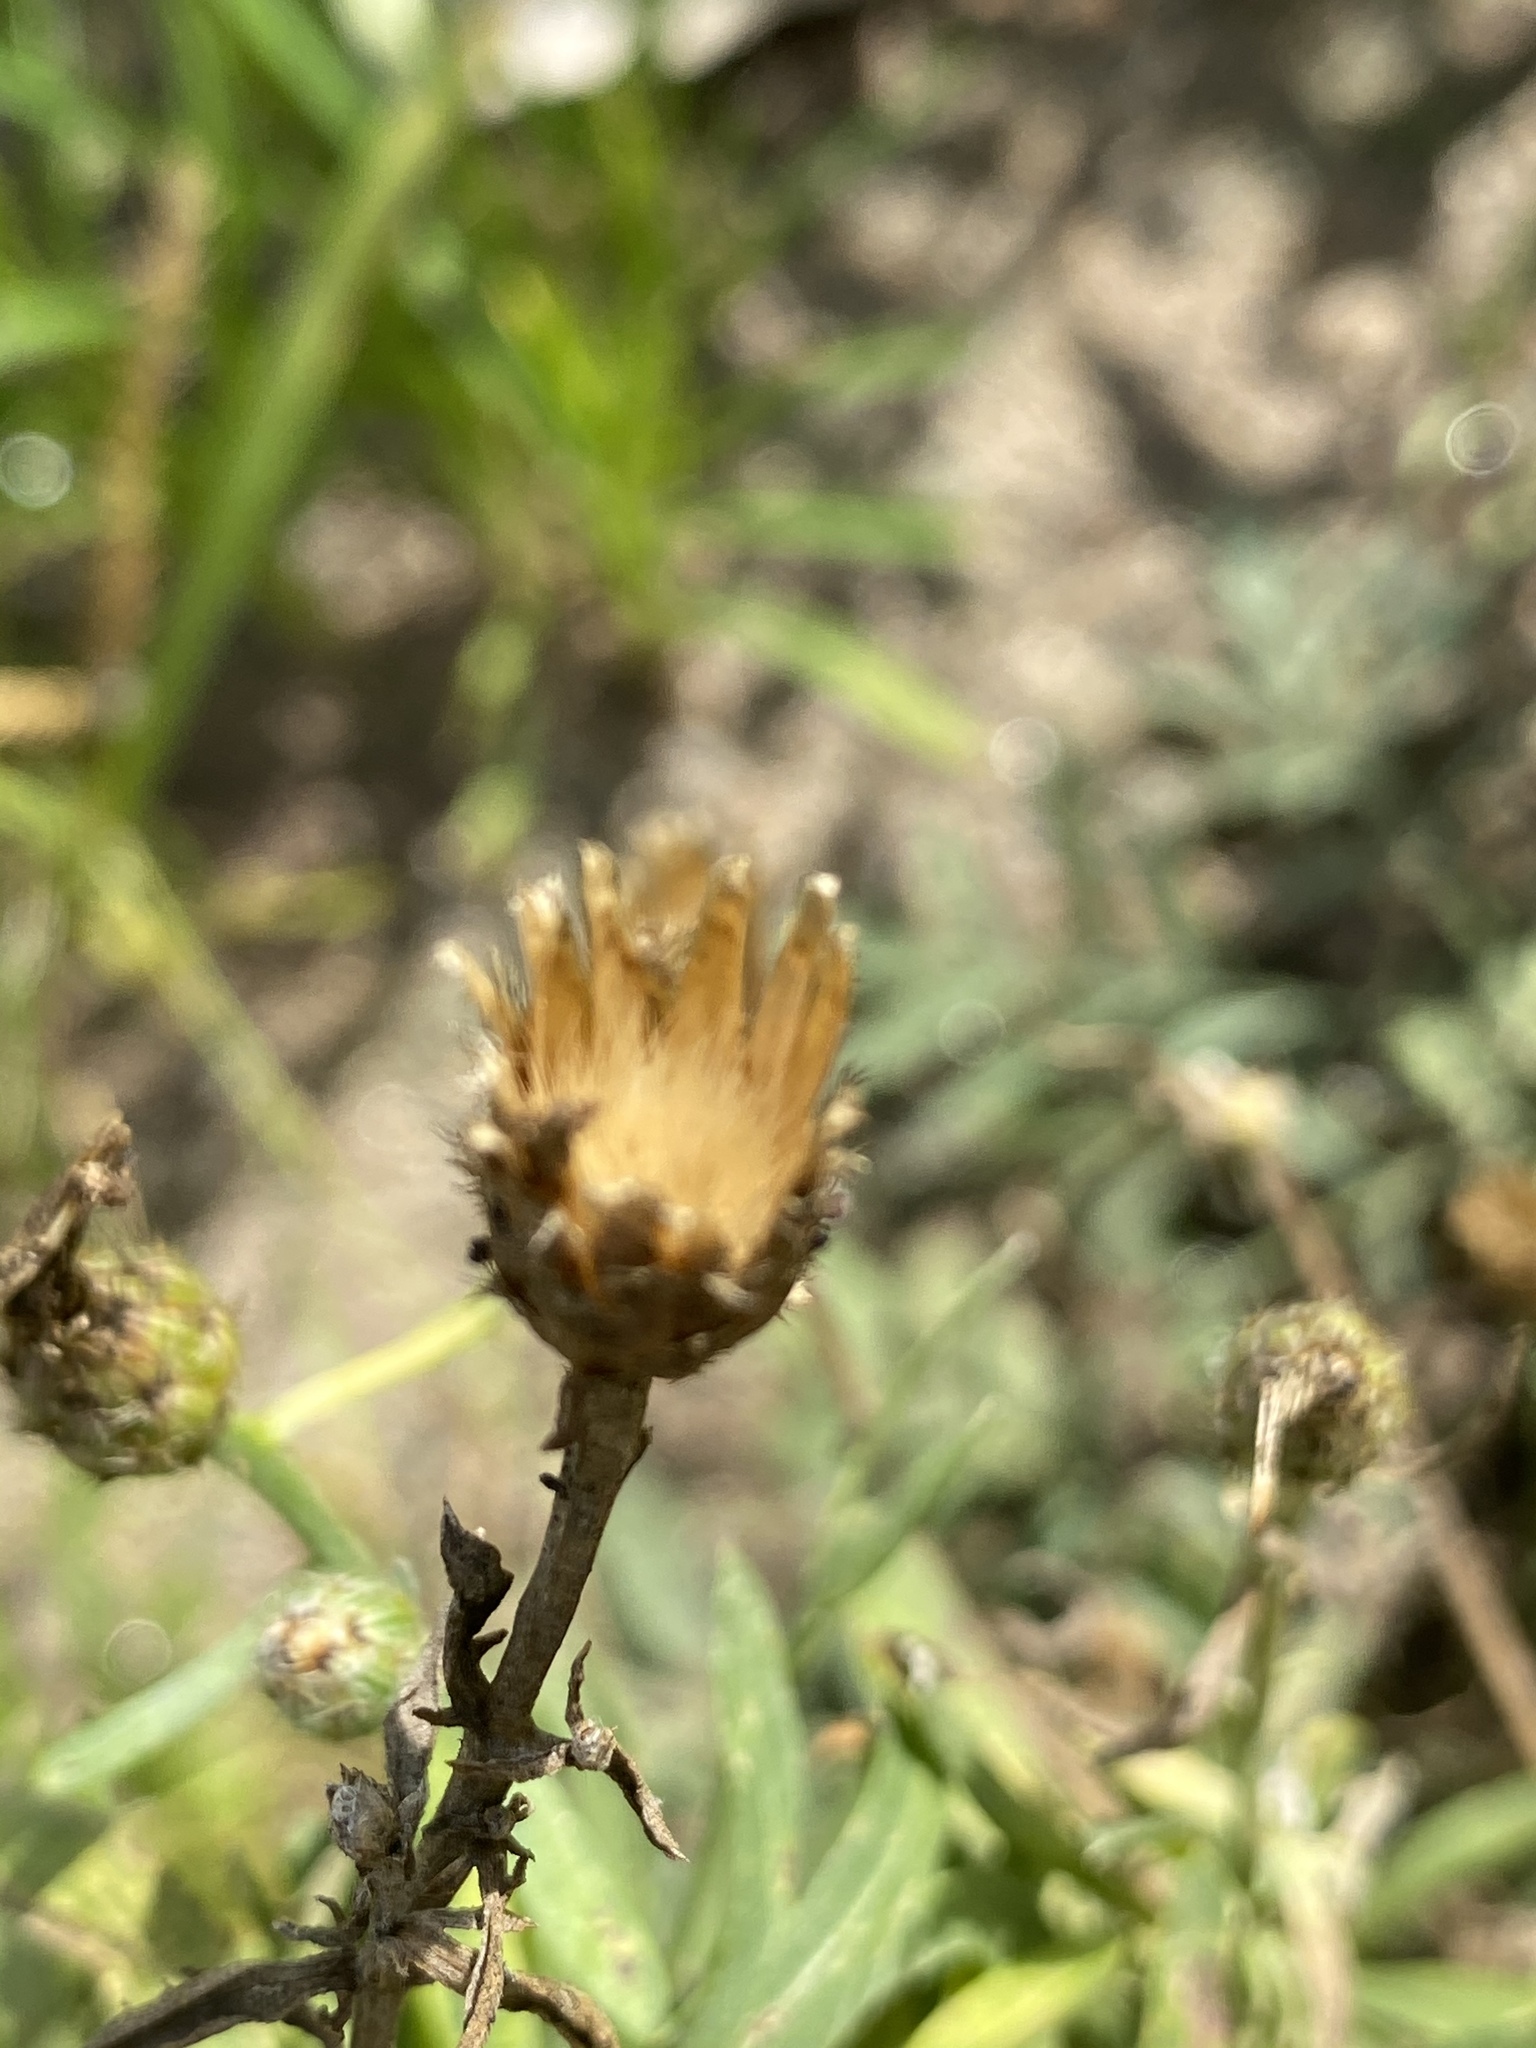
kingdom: Plantae
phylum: Tracheophyta
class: Magnoliopsida
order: Asterales
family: Asteraceae
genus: Centaurea
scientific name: Centaurea stoebe
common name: Spotted knapweed
